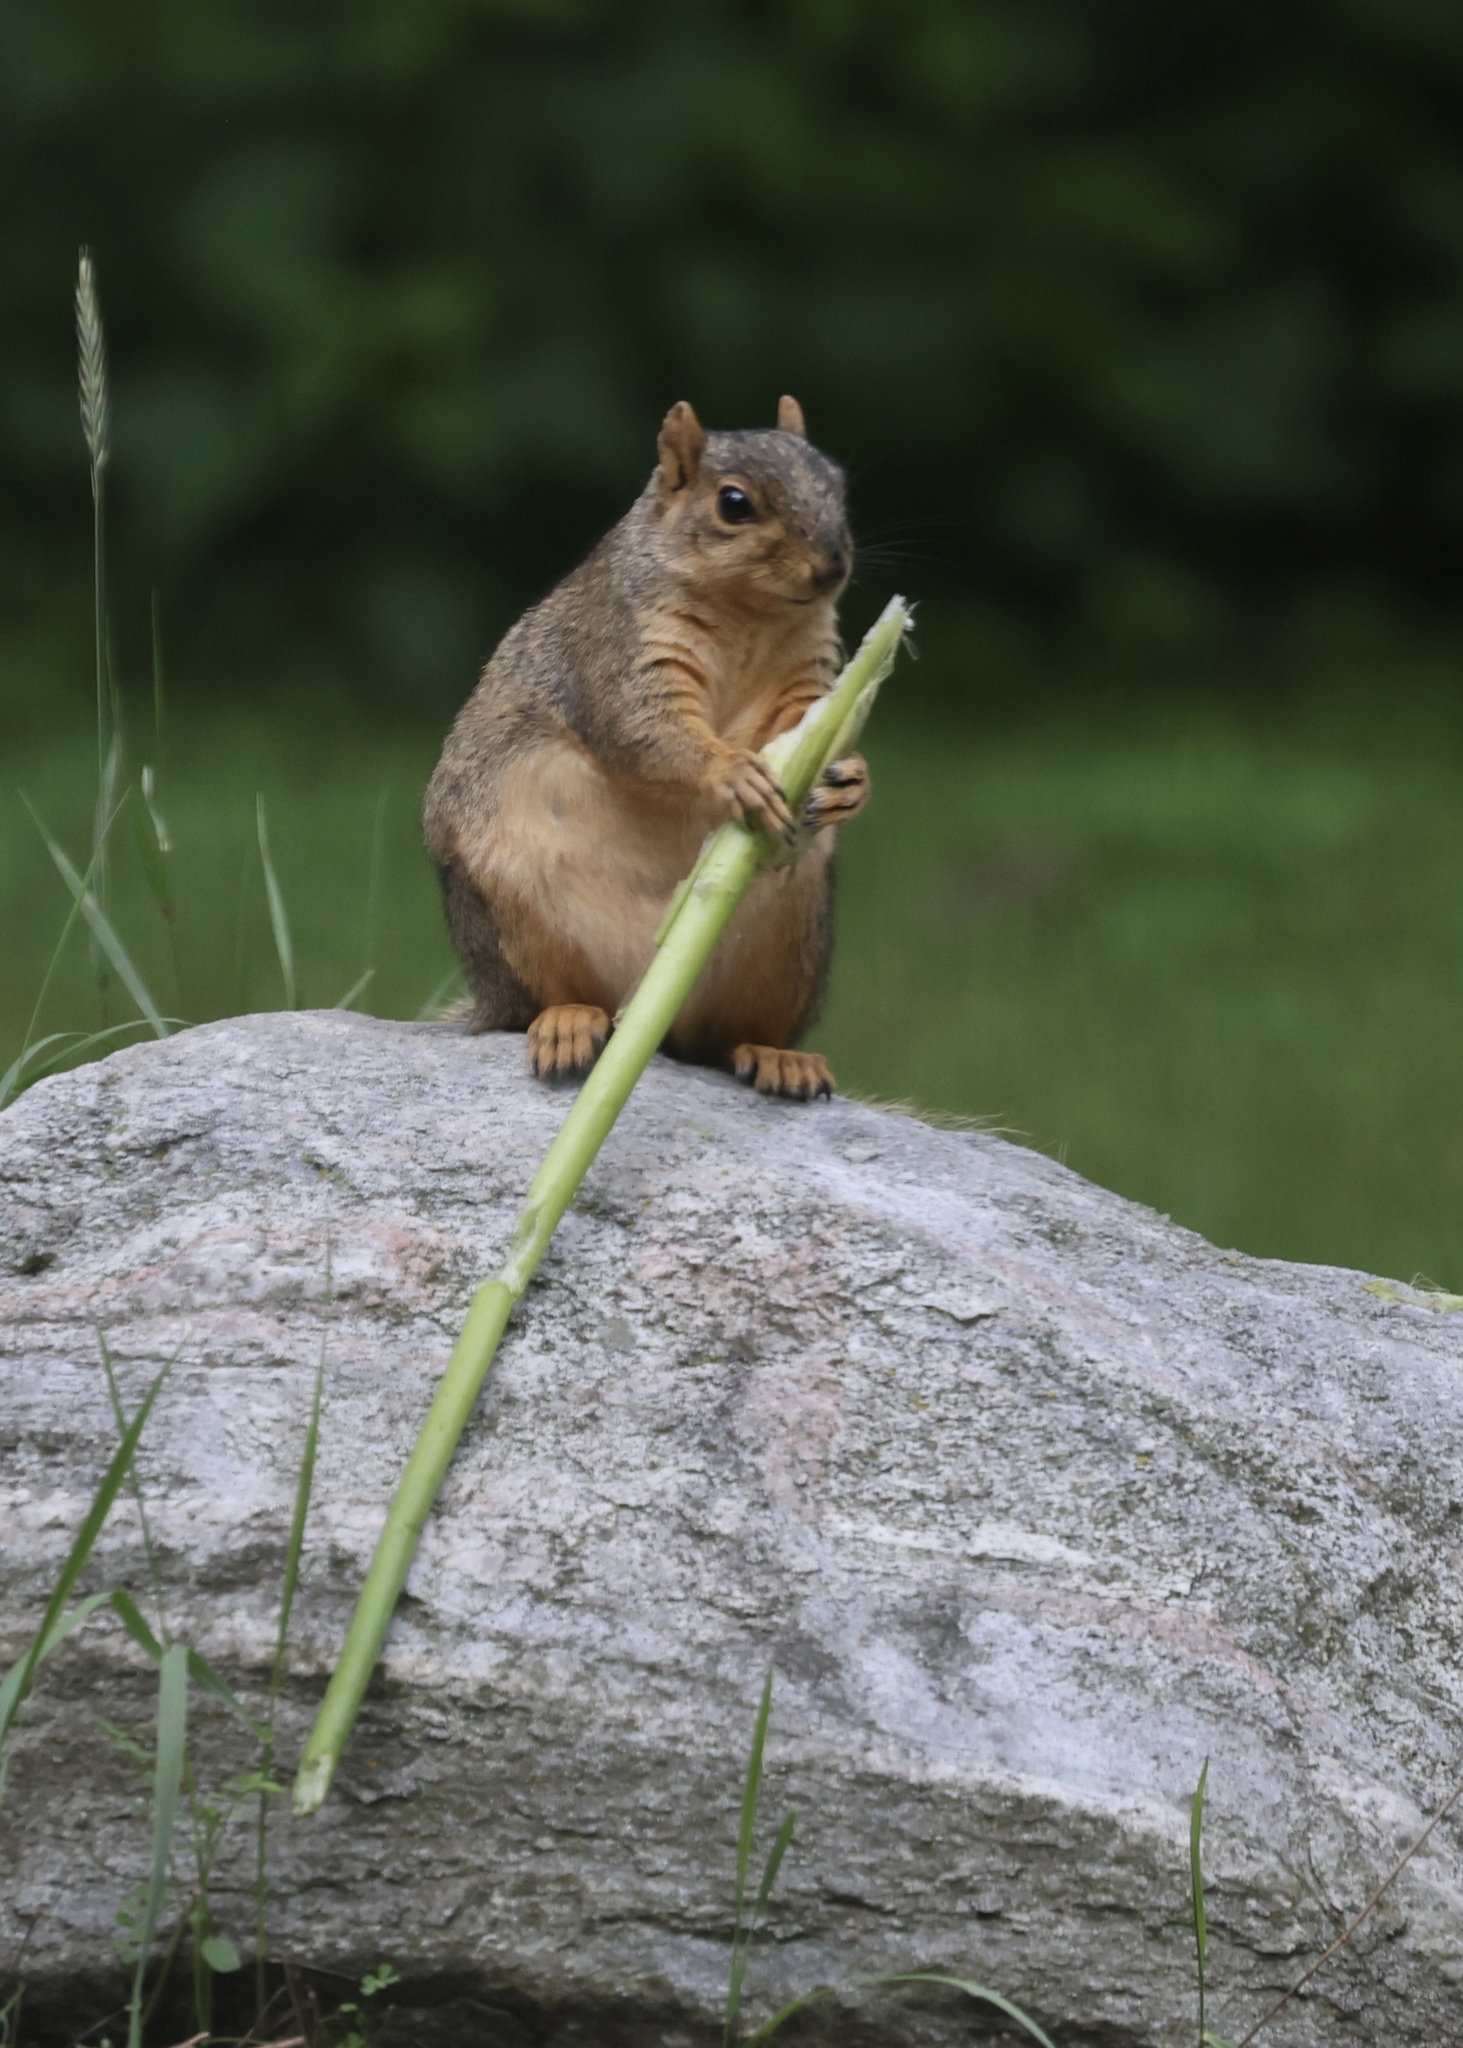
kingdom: Animalia
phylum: Chordata
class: Mammalia
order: Rodentia
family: Sciuridae
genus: Sciurus
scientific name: Sciurus niger
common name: Fox squirrel
